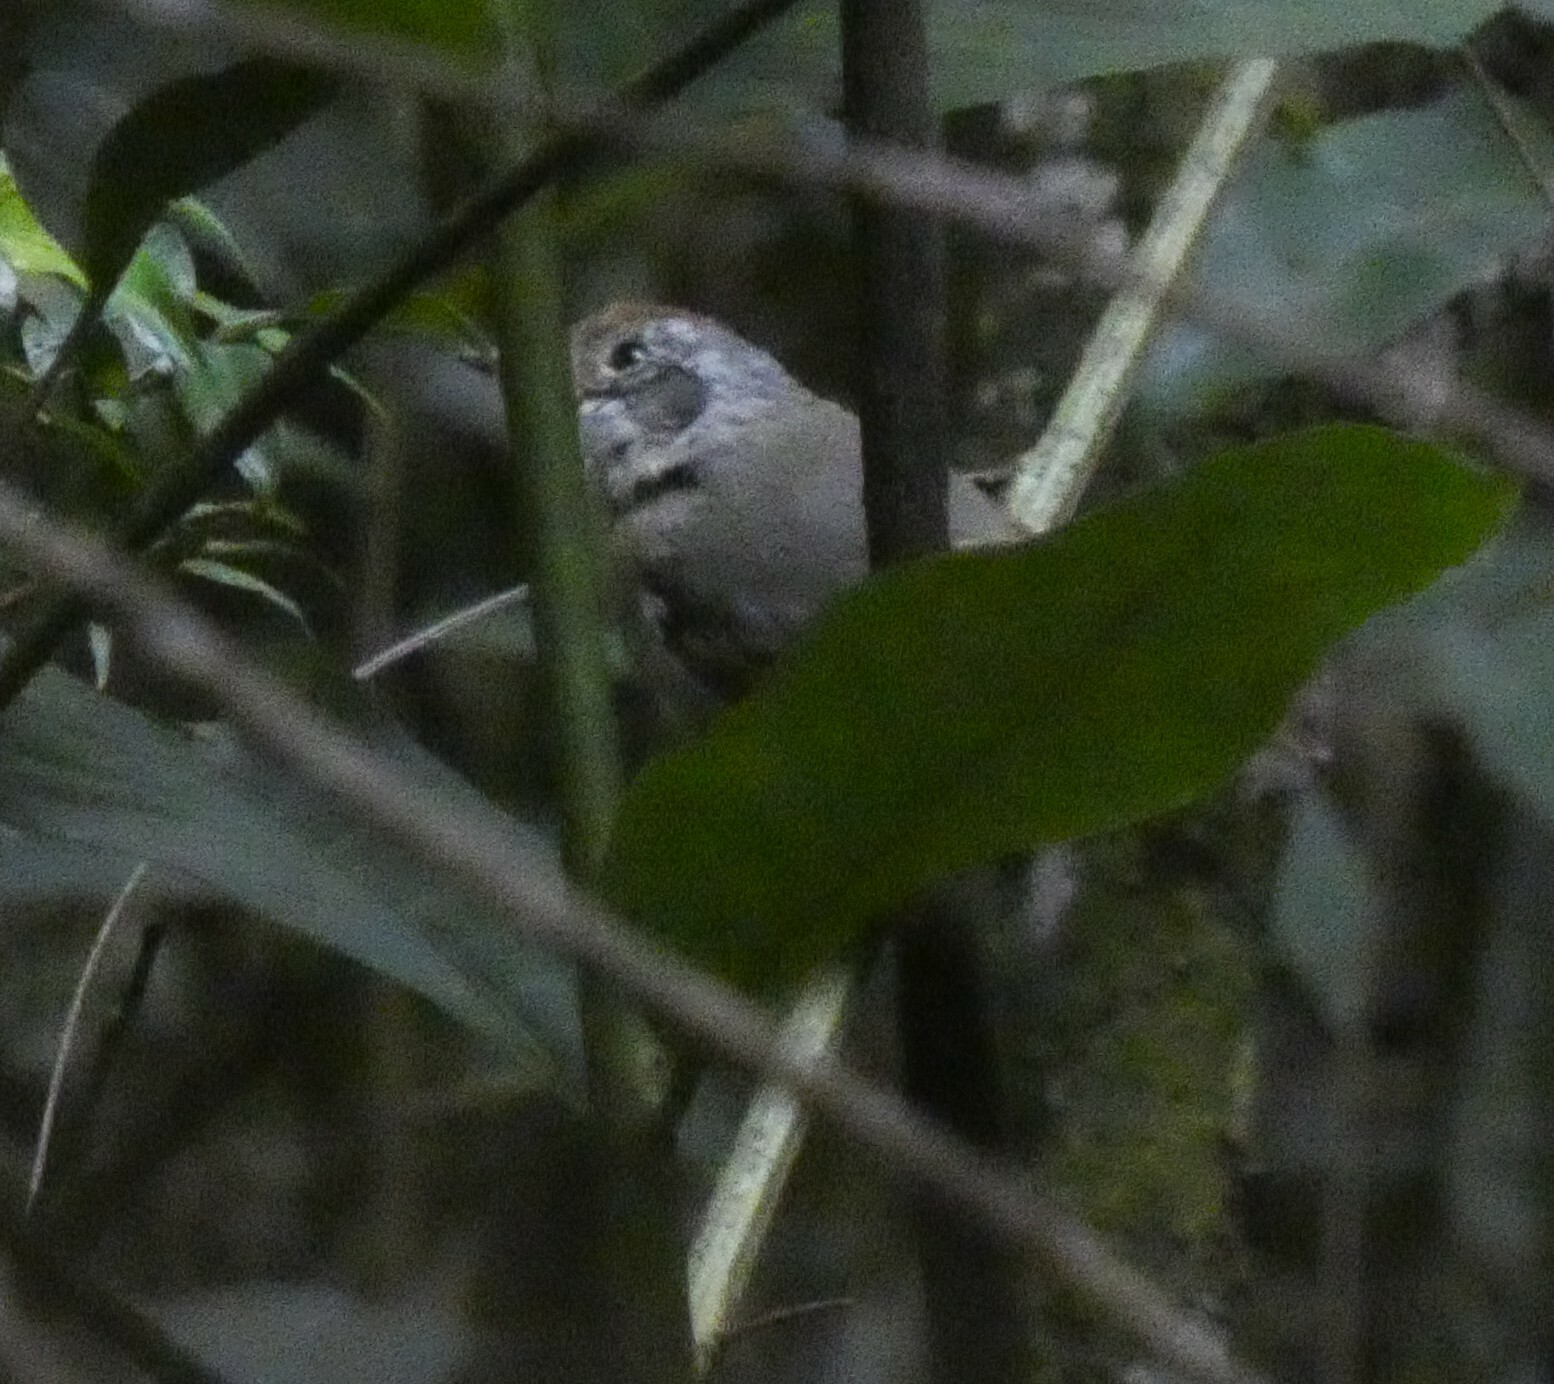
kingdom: Animalia
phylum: Chordata
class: Aves
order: Passeriformes
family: Thamnophilidae
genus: Dysithamnus
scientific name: Dysithamnus mentalis
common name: Plain antvireo
